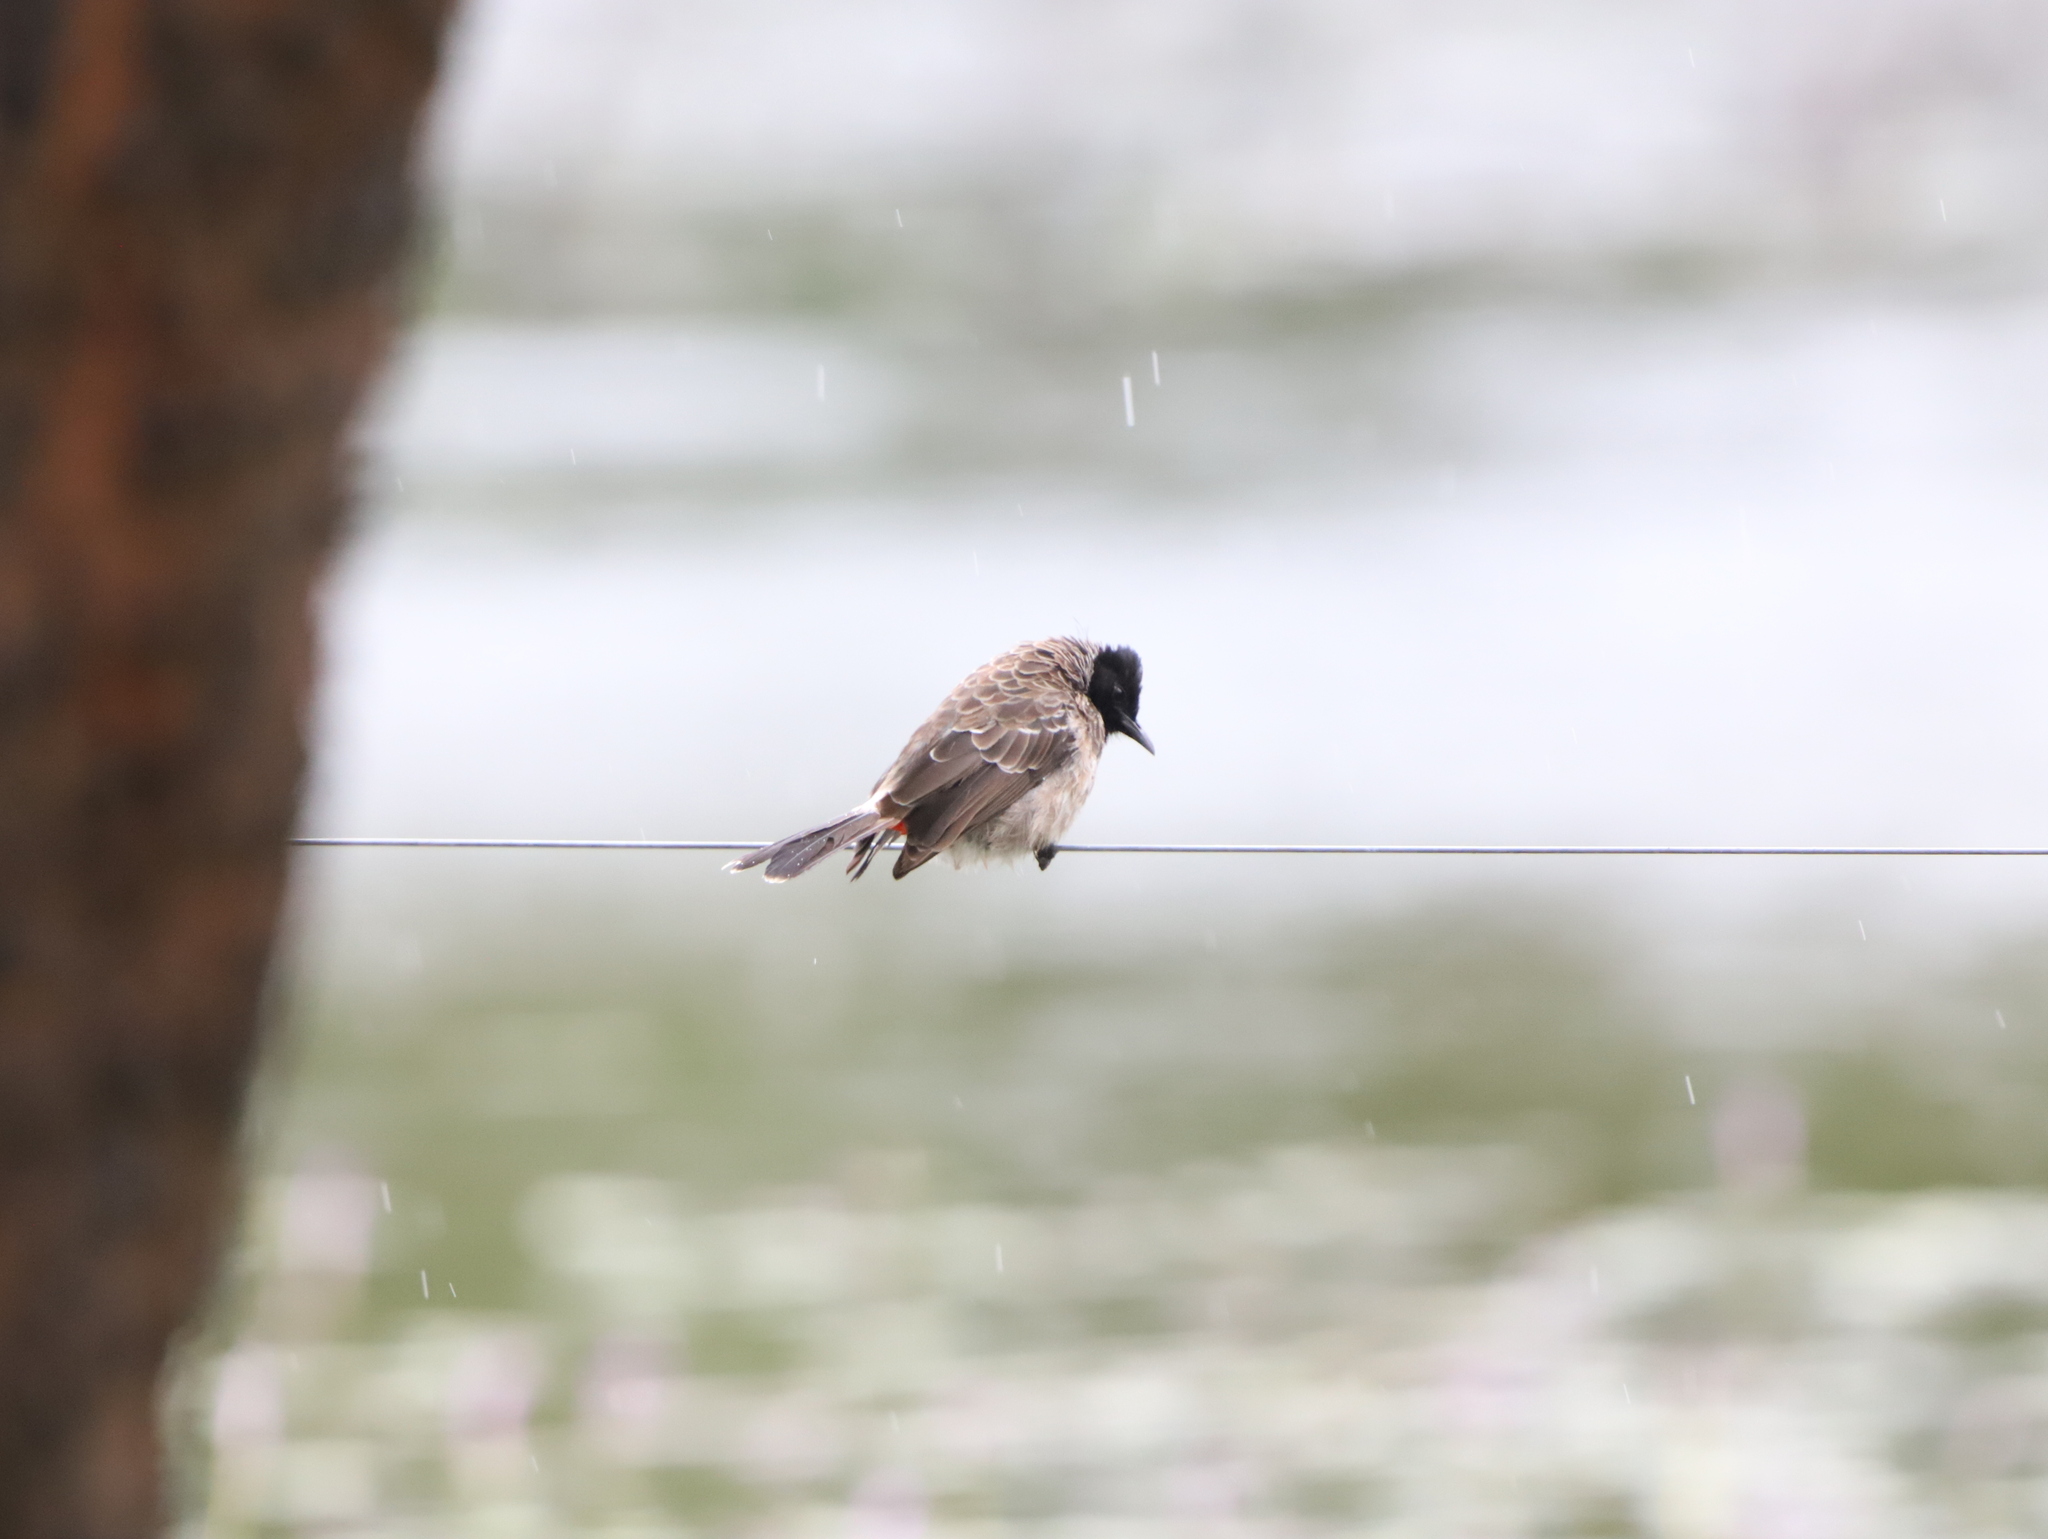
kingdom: Animalia
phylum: Chordata
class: Aves
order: Passeriformes
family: Pycnonotidae
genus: Pycnonotus
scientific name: Pycnonotus cafer
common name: Red-vented bulbul
